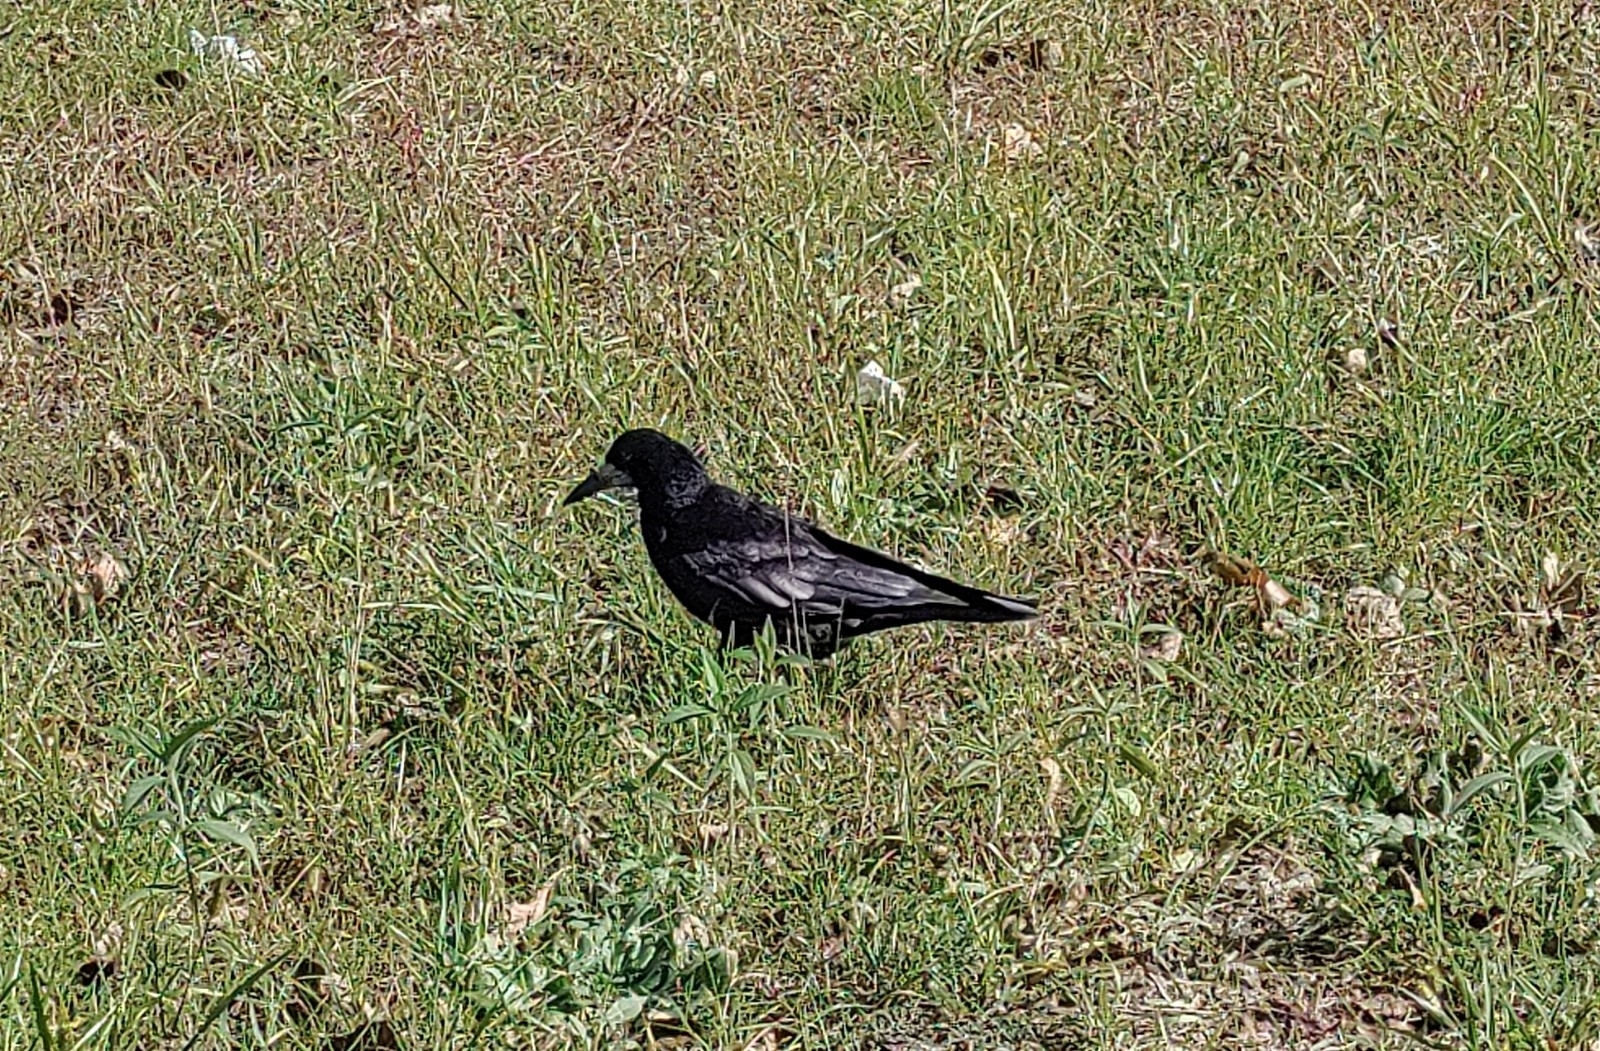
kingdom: Animalia
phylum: Chordata
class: Aves
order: Passeriformes
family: Corvidae
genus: Corvus
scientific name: Corvus frugilegus
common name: Rook
